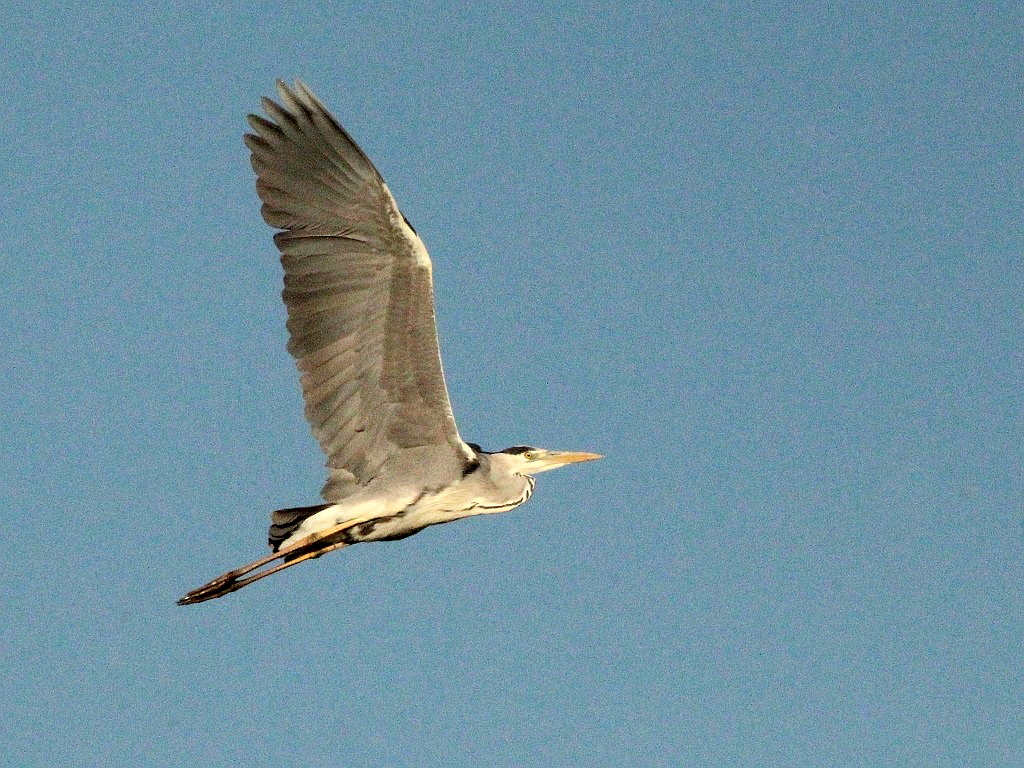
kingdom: Animalia
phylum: Chordata
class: Aves
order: Pelecaniformes
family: Ardeidae
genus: Ardea
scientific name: Ardea cinerea
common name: Grey heron
